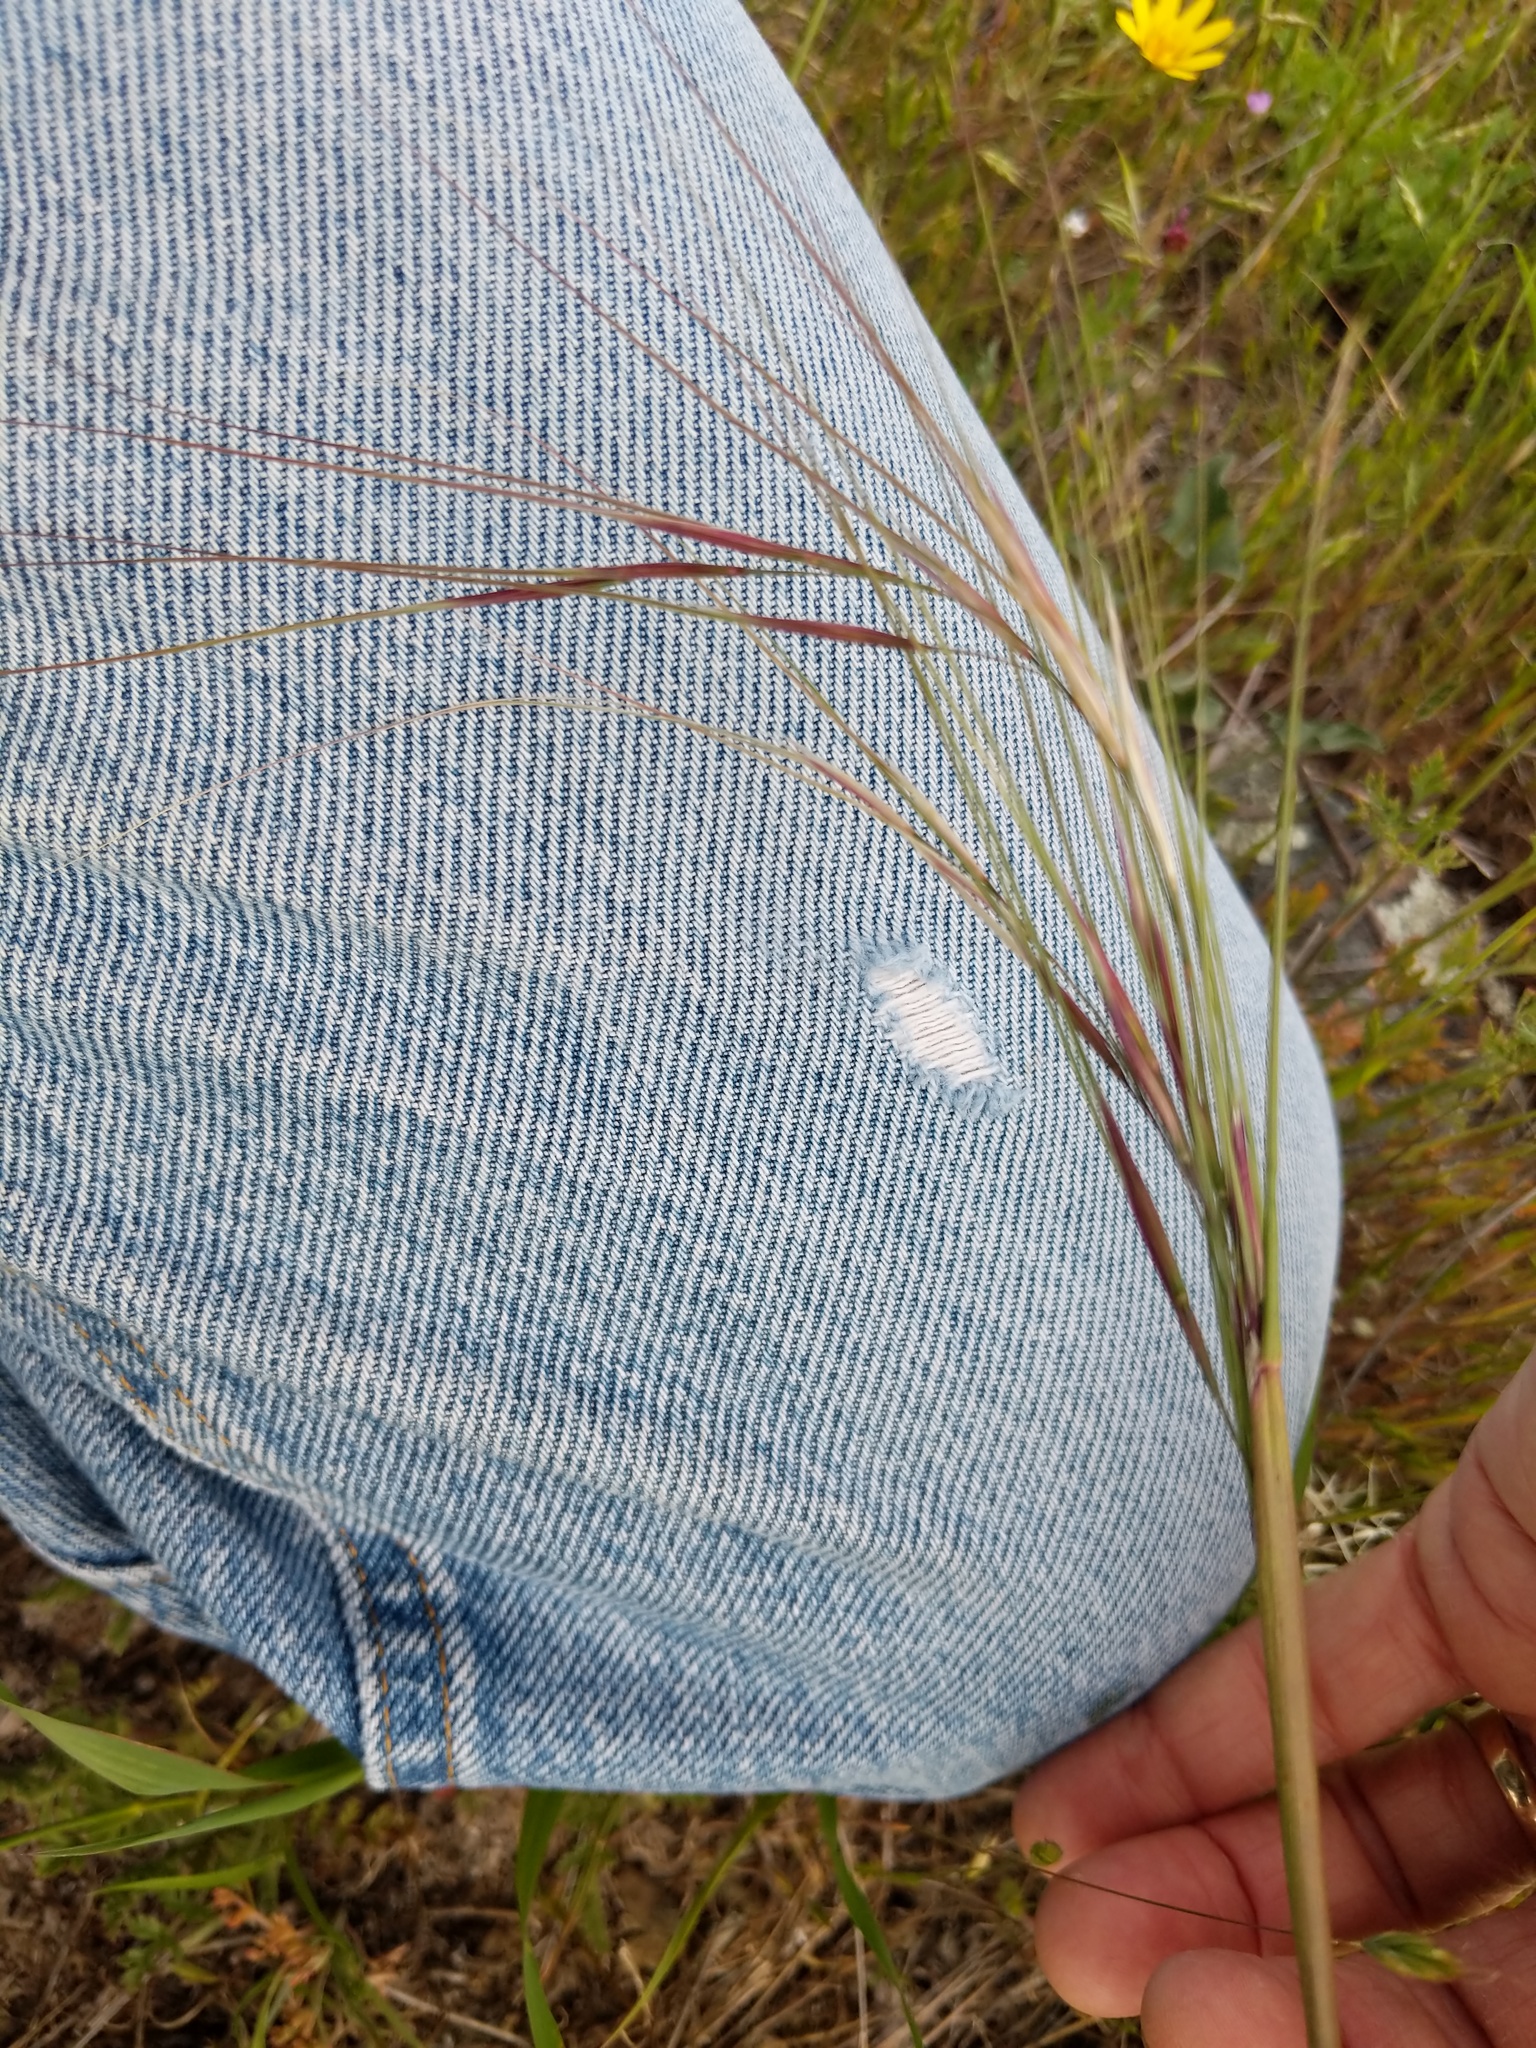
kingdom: Plantae
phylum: Tracheophyta
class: Liliopsida
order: Poales
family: Poaceae
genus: Nassella
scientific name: Nassella pulchra
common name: Purple needlegrass
